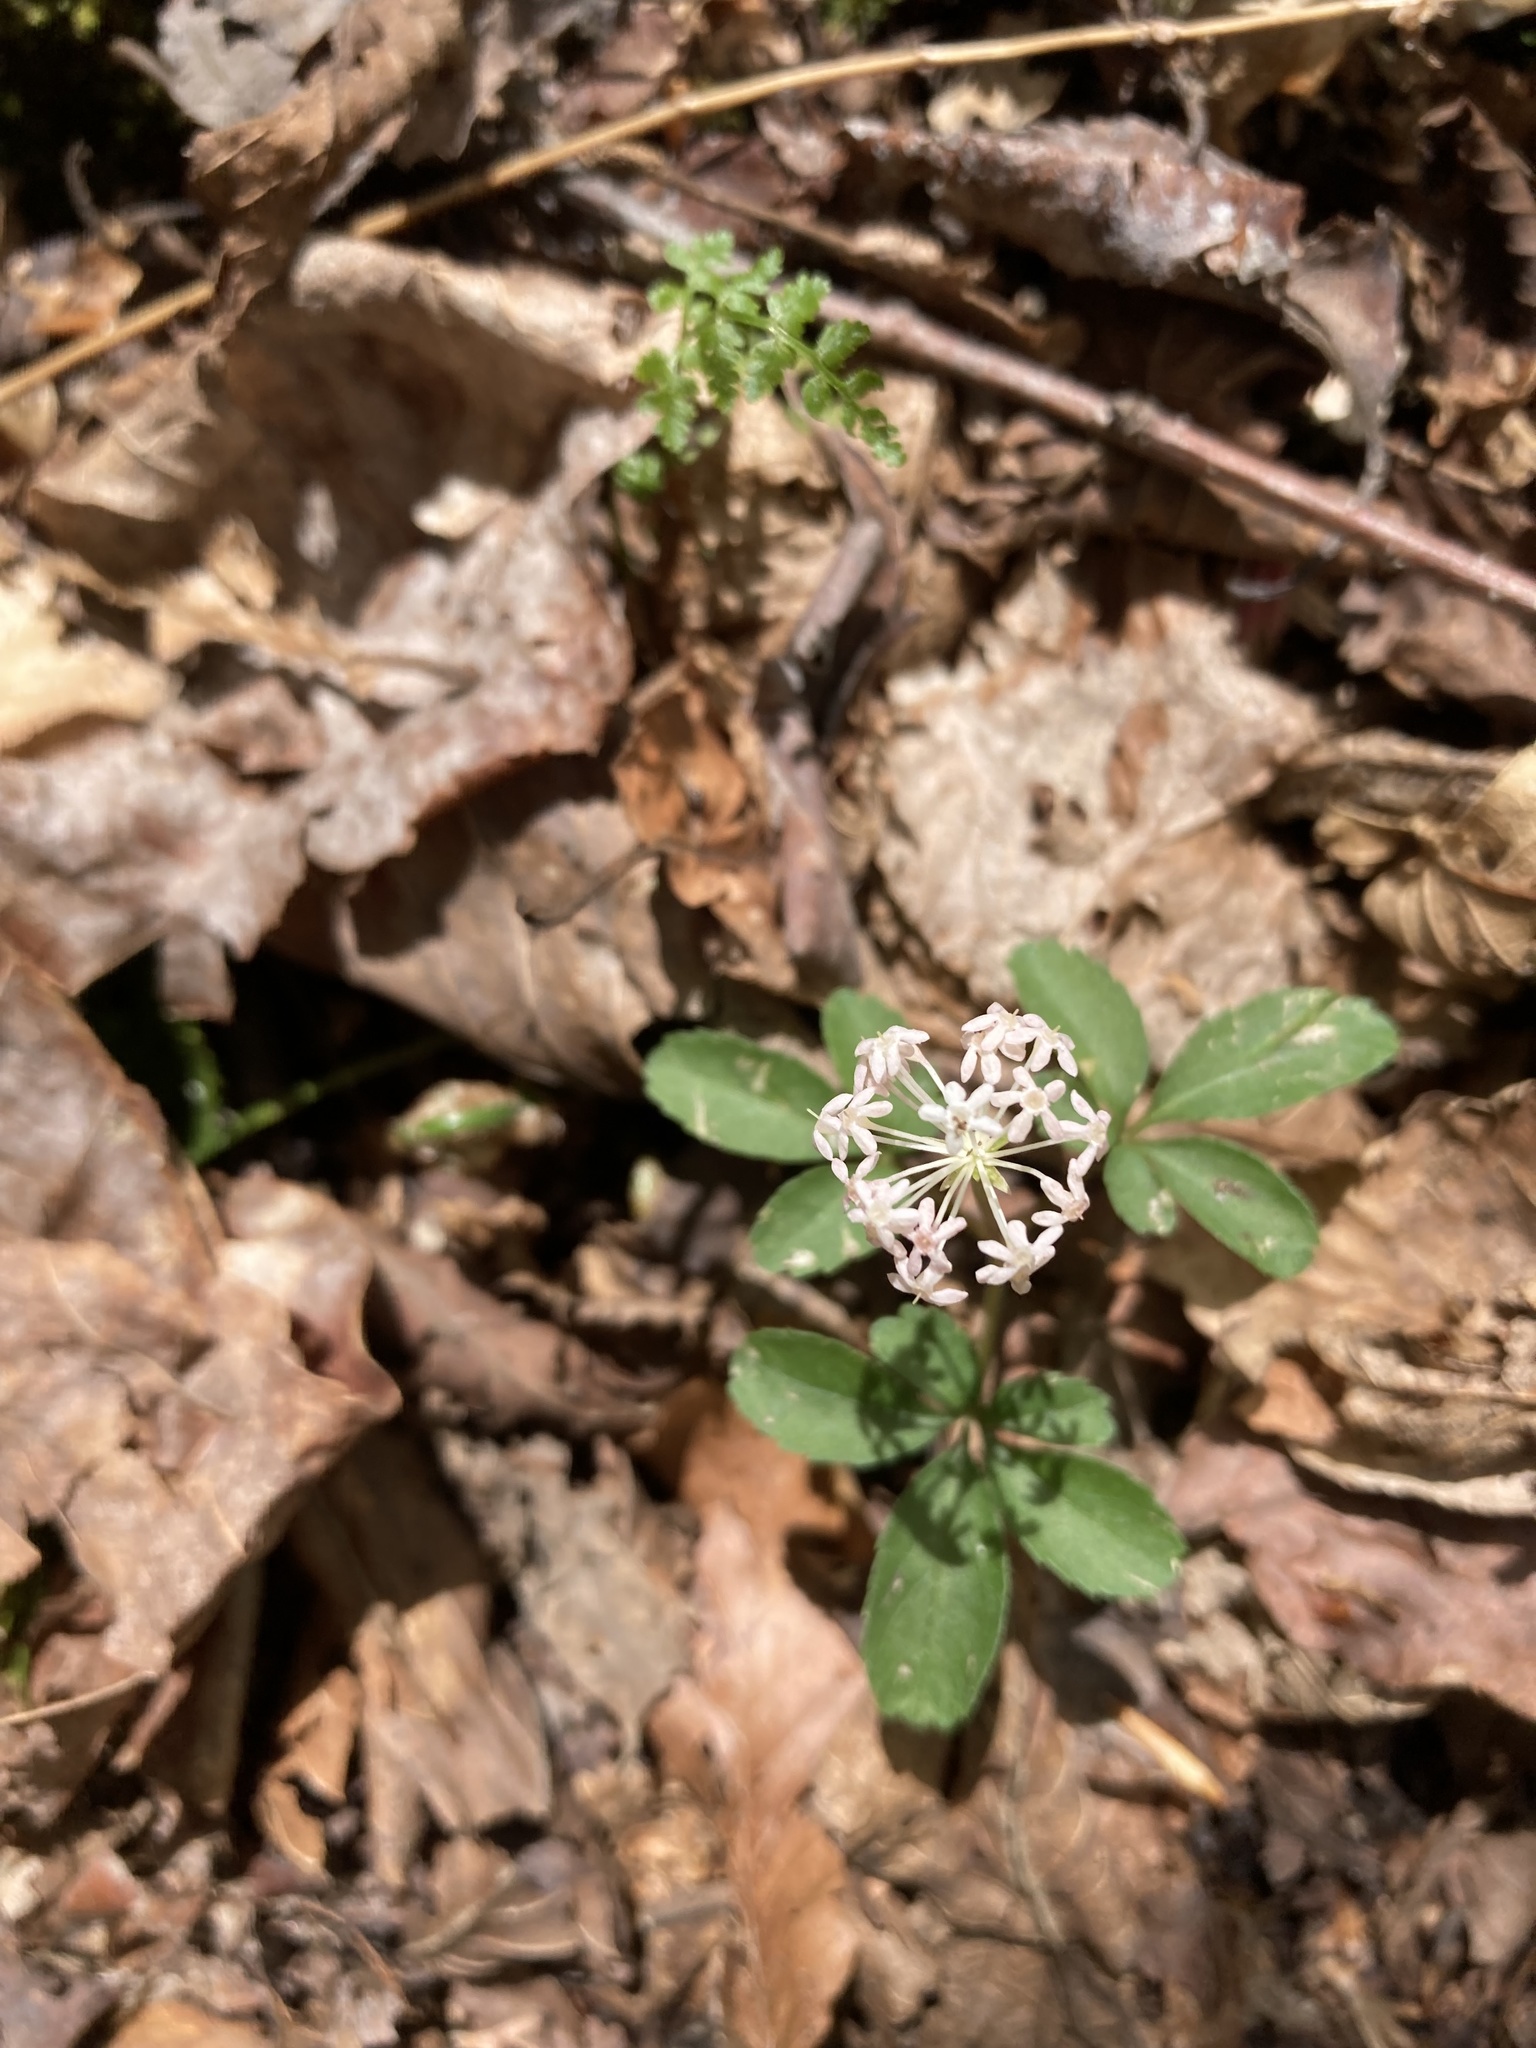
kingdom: Plantae
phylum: Tracheophyta
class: Magnoliopsida
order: Apiales
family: Araliaceae
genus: Panax
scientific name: Panax trifolius
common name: Dwarf ginseng
